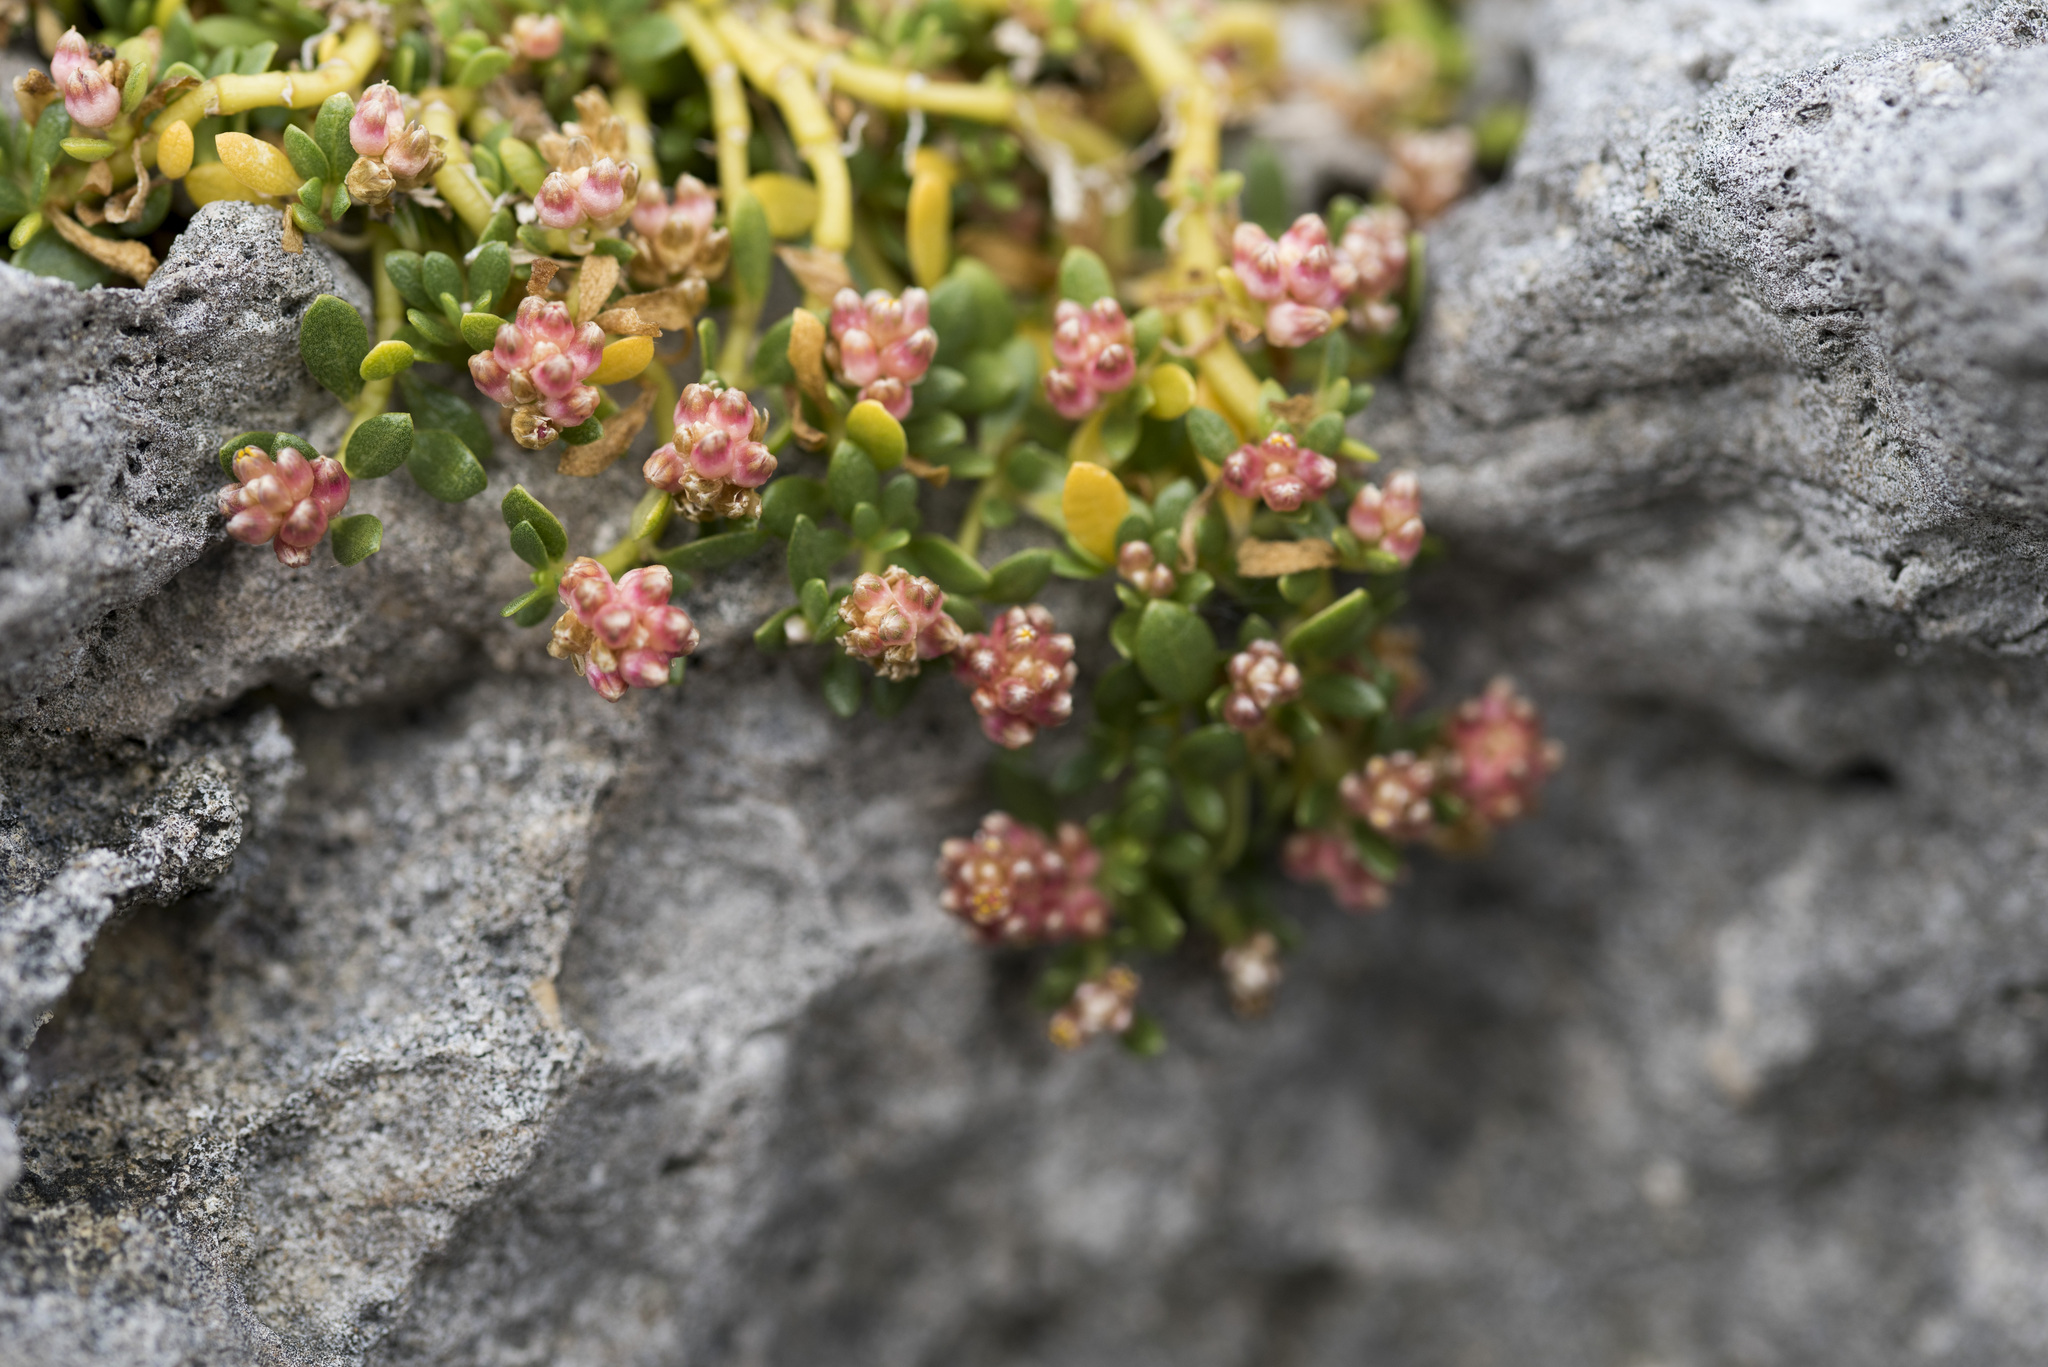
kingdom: Plantae
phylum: Tracheophyta
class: Magnoliopsida
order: Caryophyllales
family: Amaranthaceae
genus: Gomphrena
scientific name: Gomphrena wrightii
